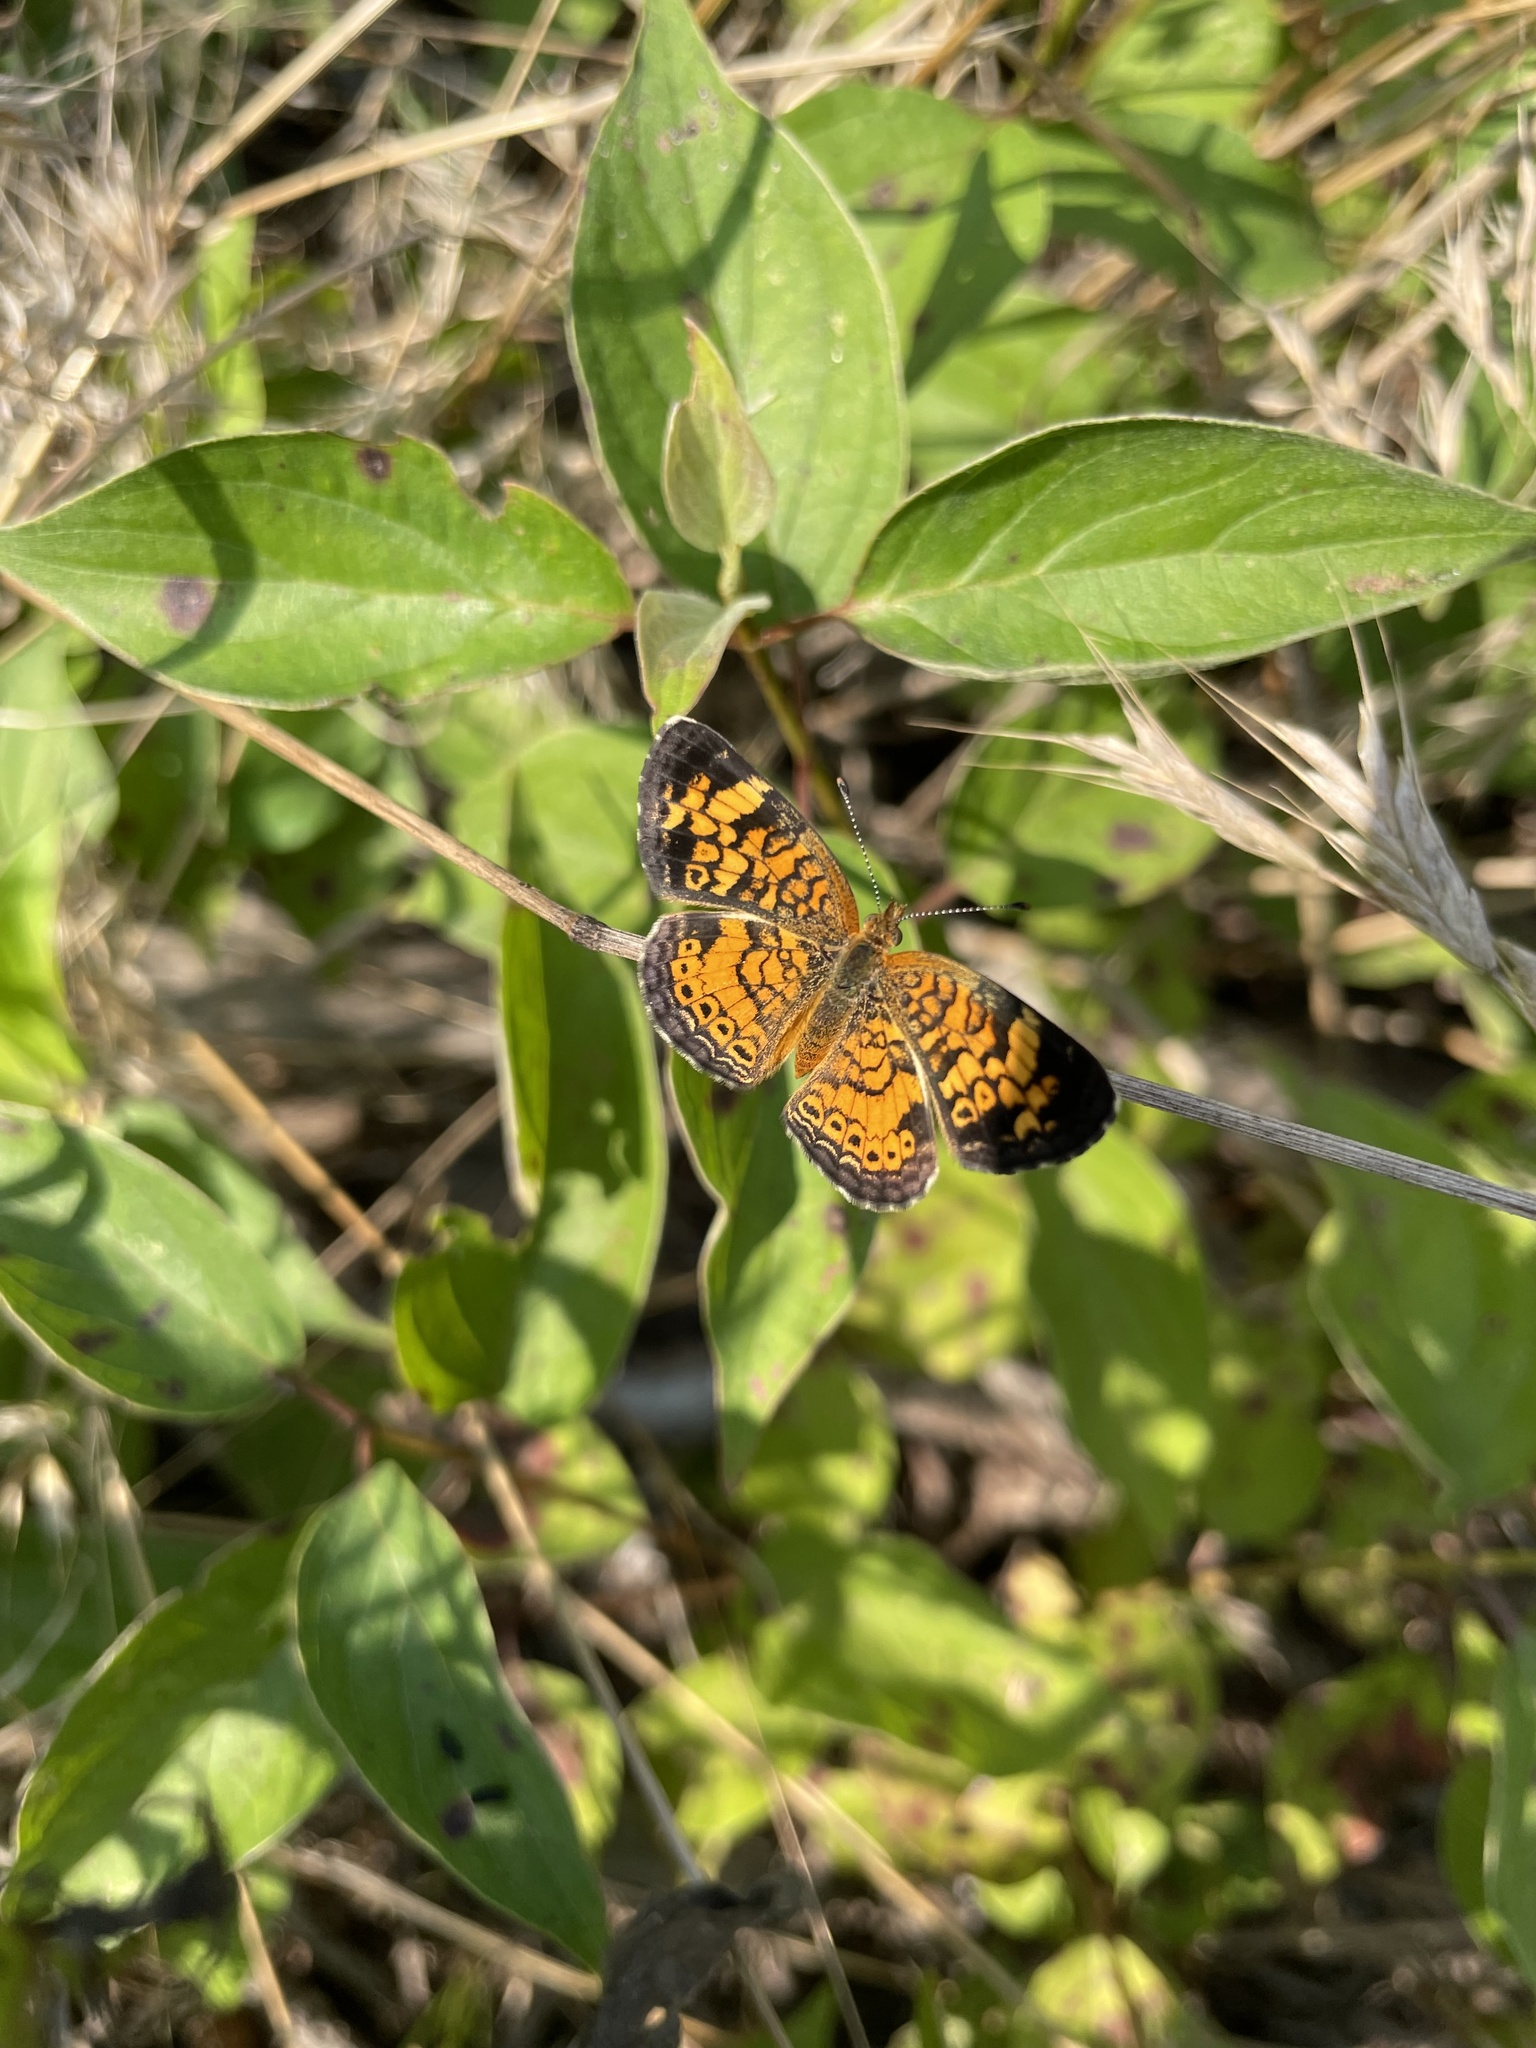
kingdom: Animalia
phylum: Arthropoda
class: Insecta
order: Lepidoptera
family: Nymphalidae
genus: Phyciodes
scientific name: Phyciodes tharos
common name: Pearl crescent
